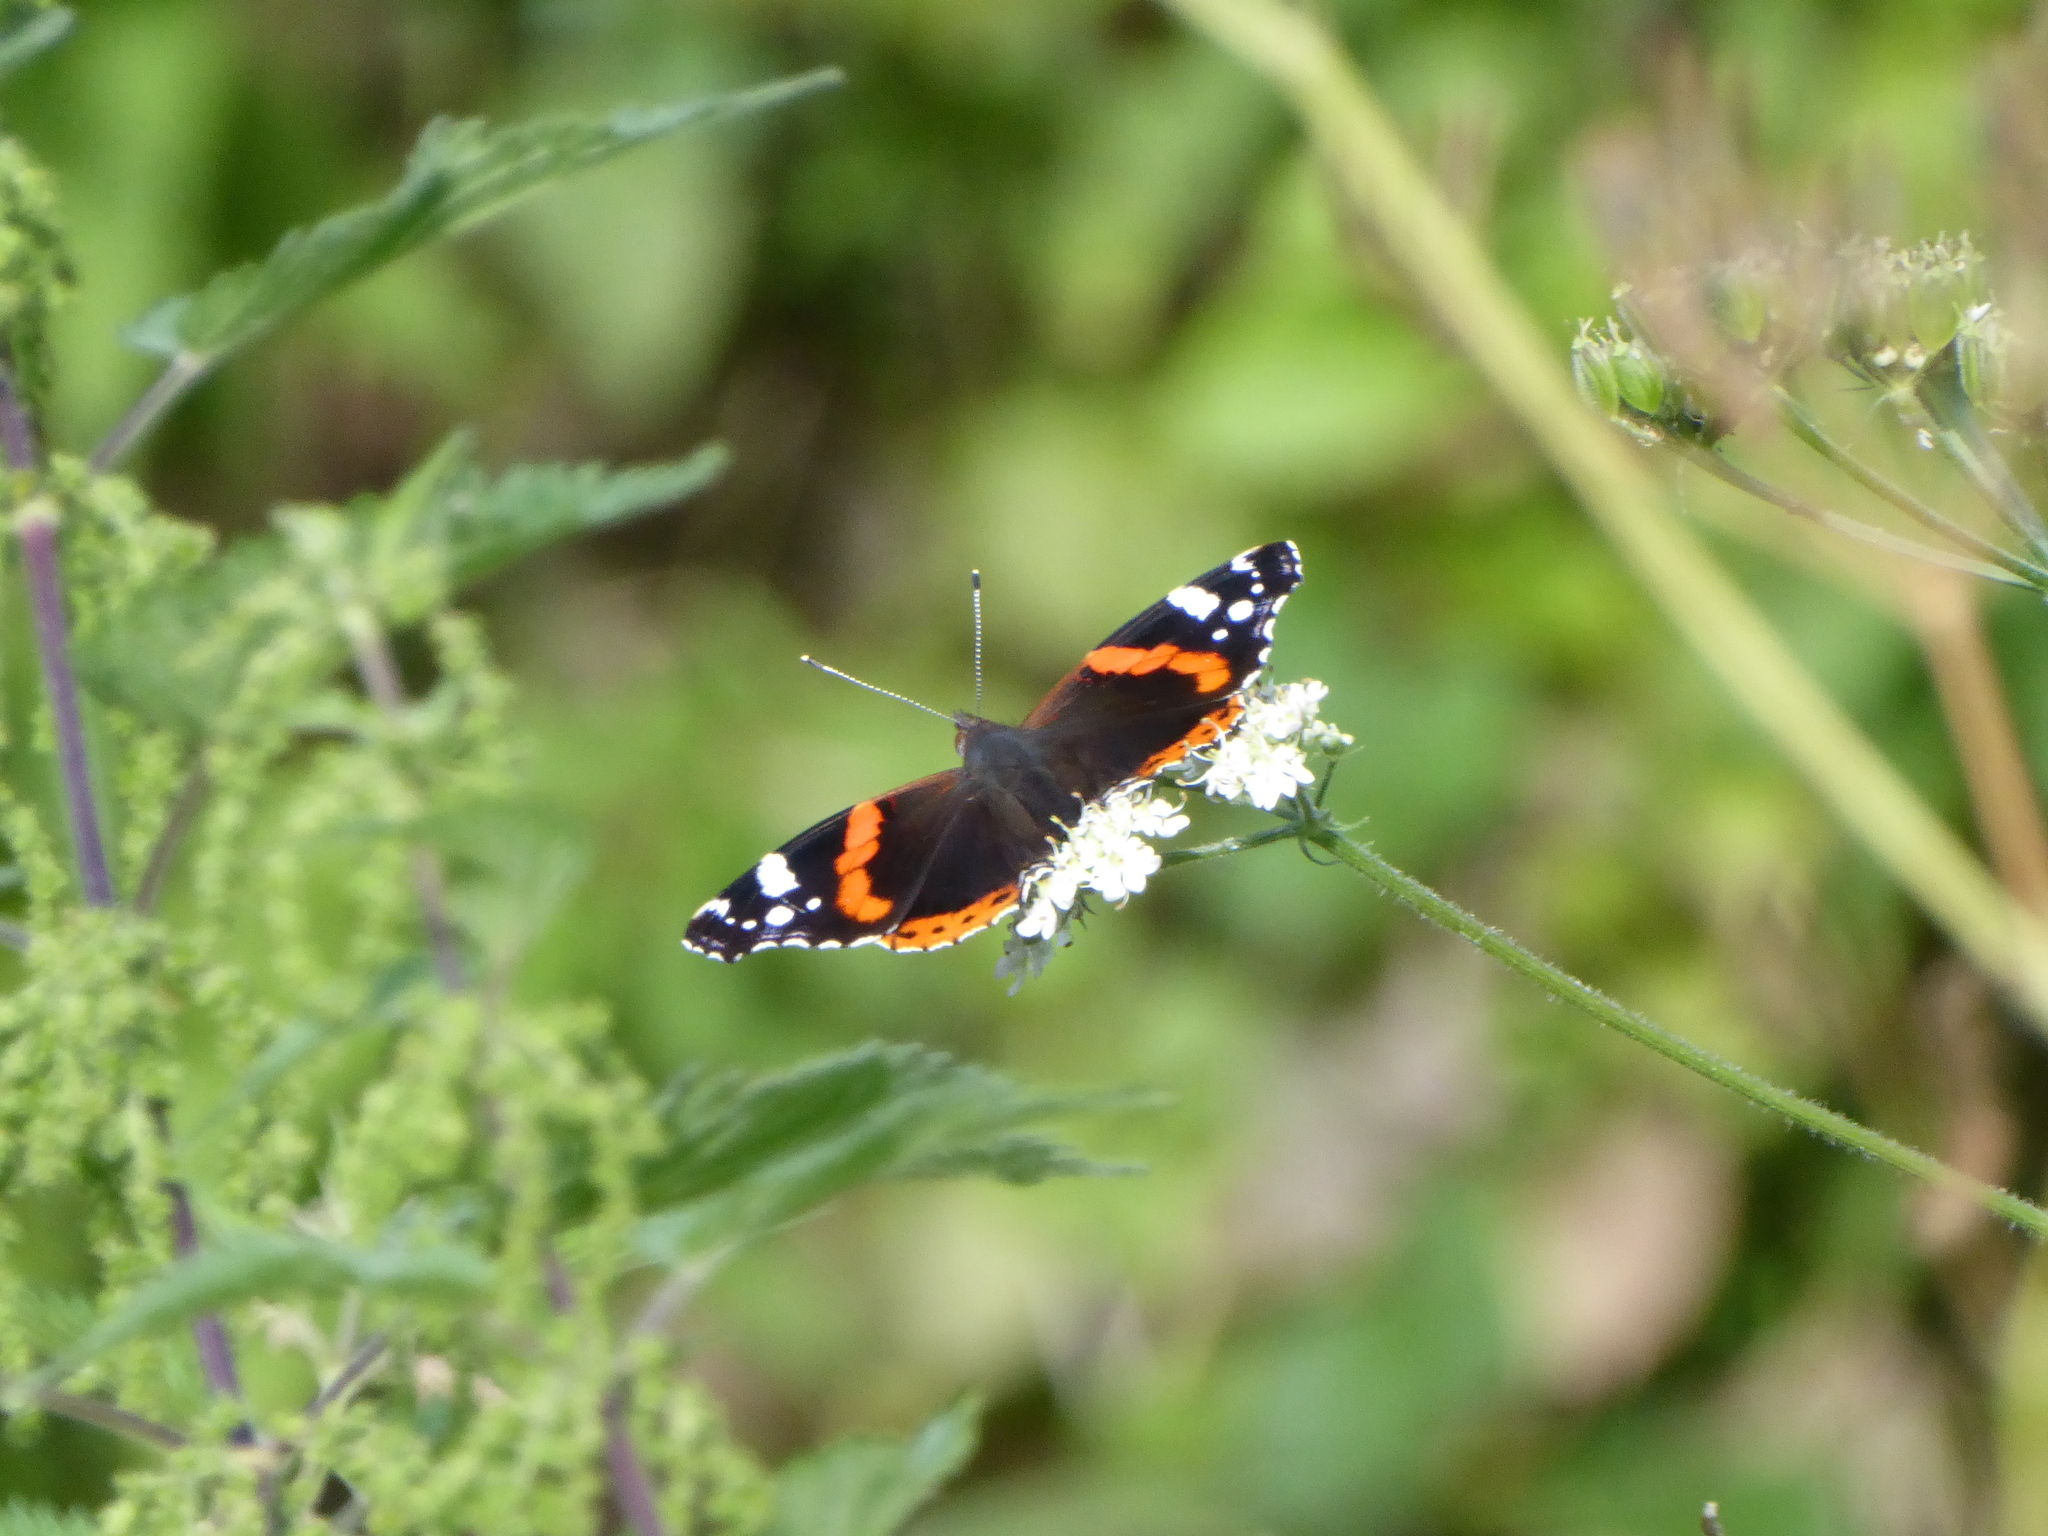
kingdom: Animalia
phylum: Arthropoda
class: Insecta
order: Lepidoptera
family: Nymphalidae
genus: Vanessa
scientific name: Vanessa atalanta
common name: Red admiral
